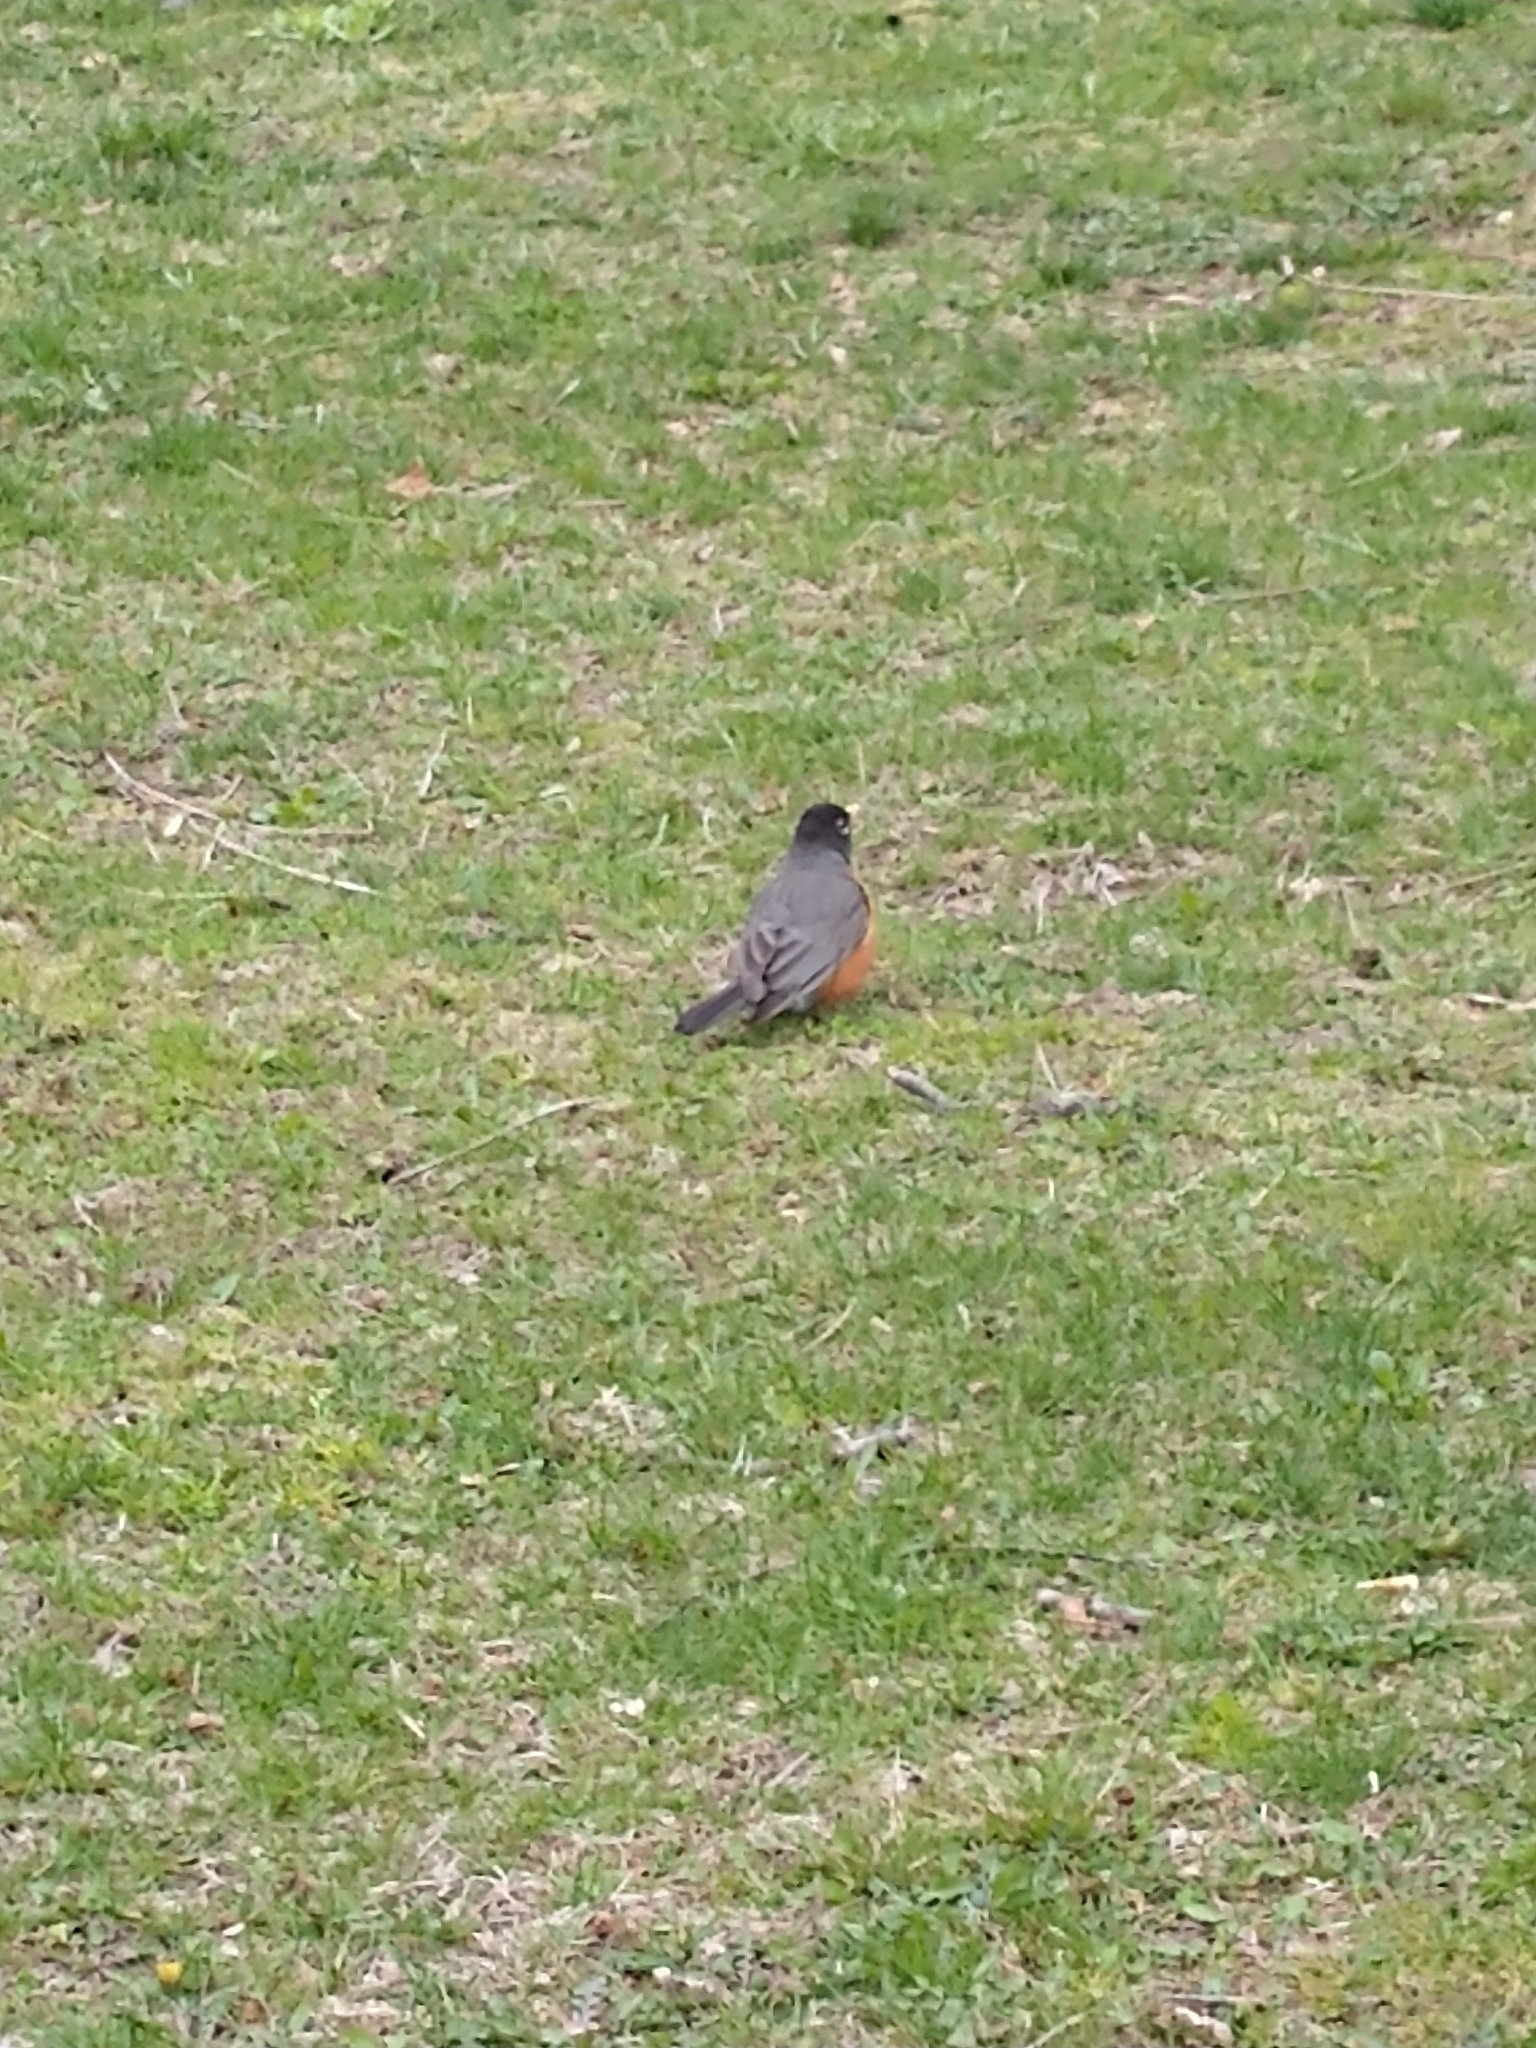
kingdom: Animalia
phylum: Chordata
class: Aves
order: Passeriformes
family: Turdidae
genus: Turdus
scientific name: Turdus migratorius
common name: American robin
